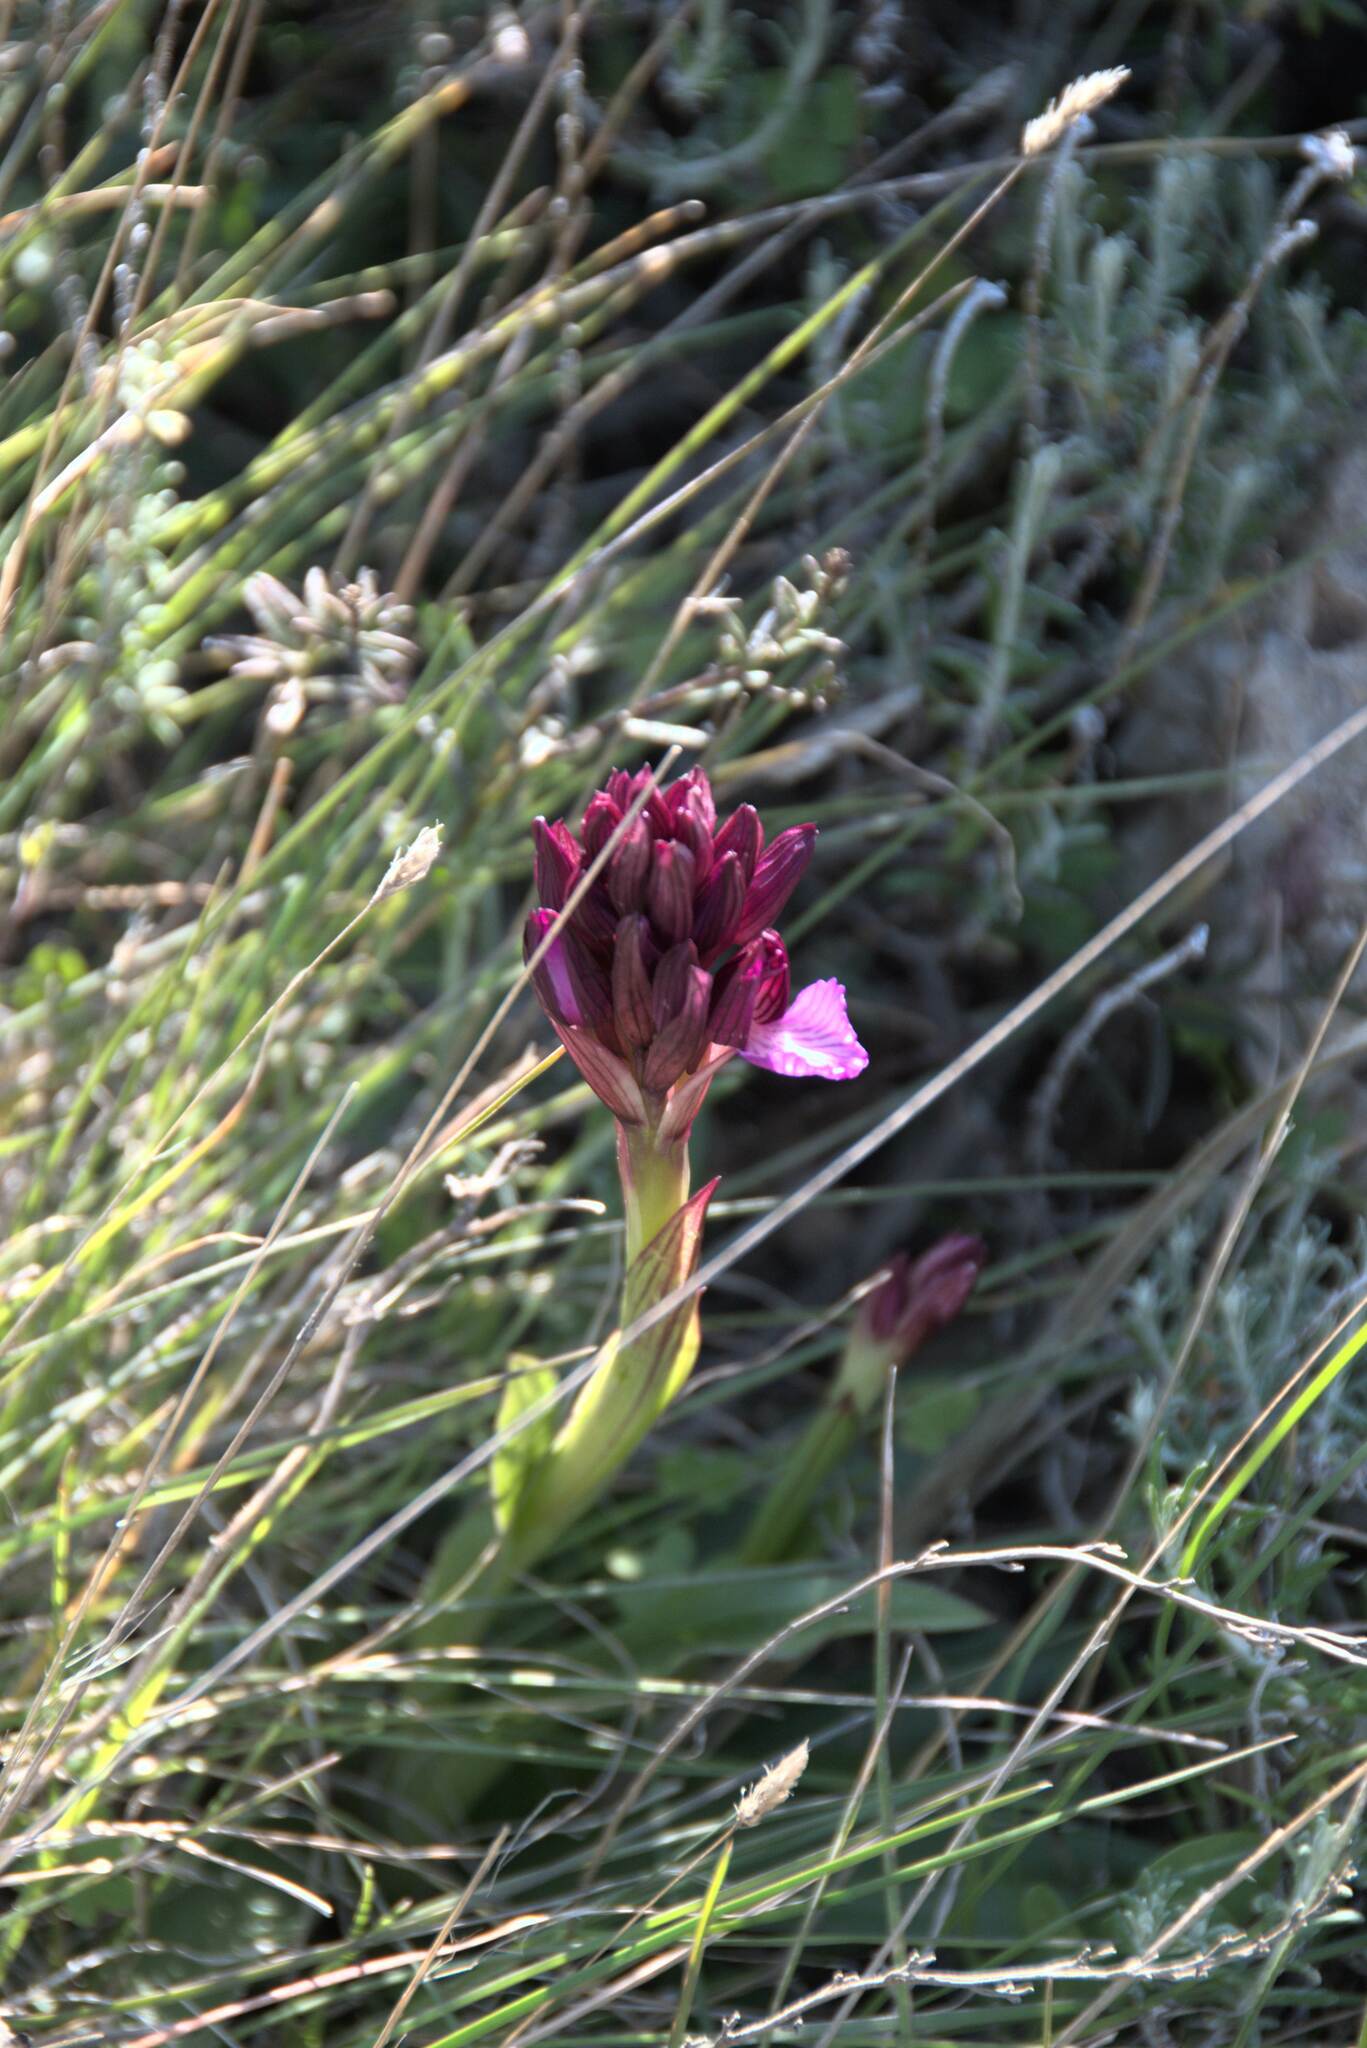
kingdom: Plantae
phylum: Tracheophyta
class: Liliopsida
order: Asparagales
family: Orchidaceae
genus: Anacamptis
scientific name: Anacamptis papilionacea
